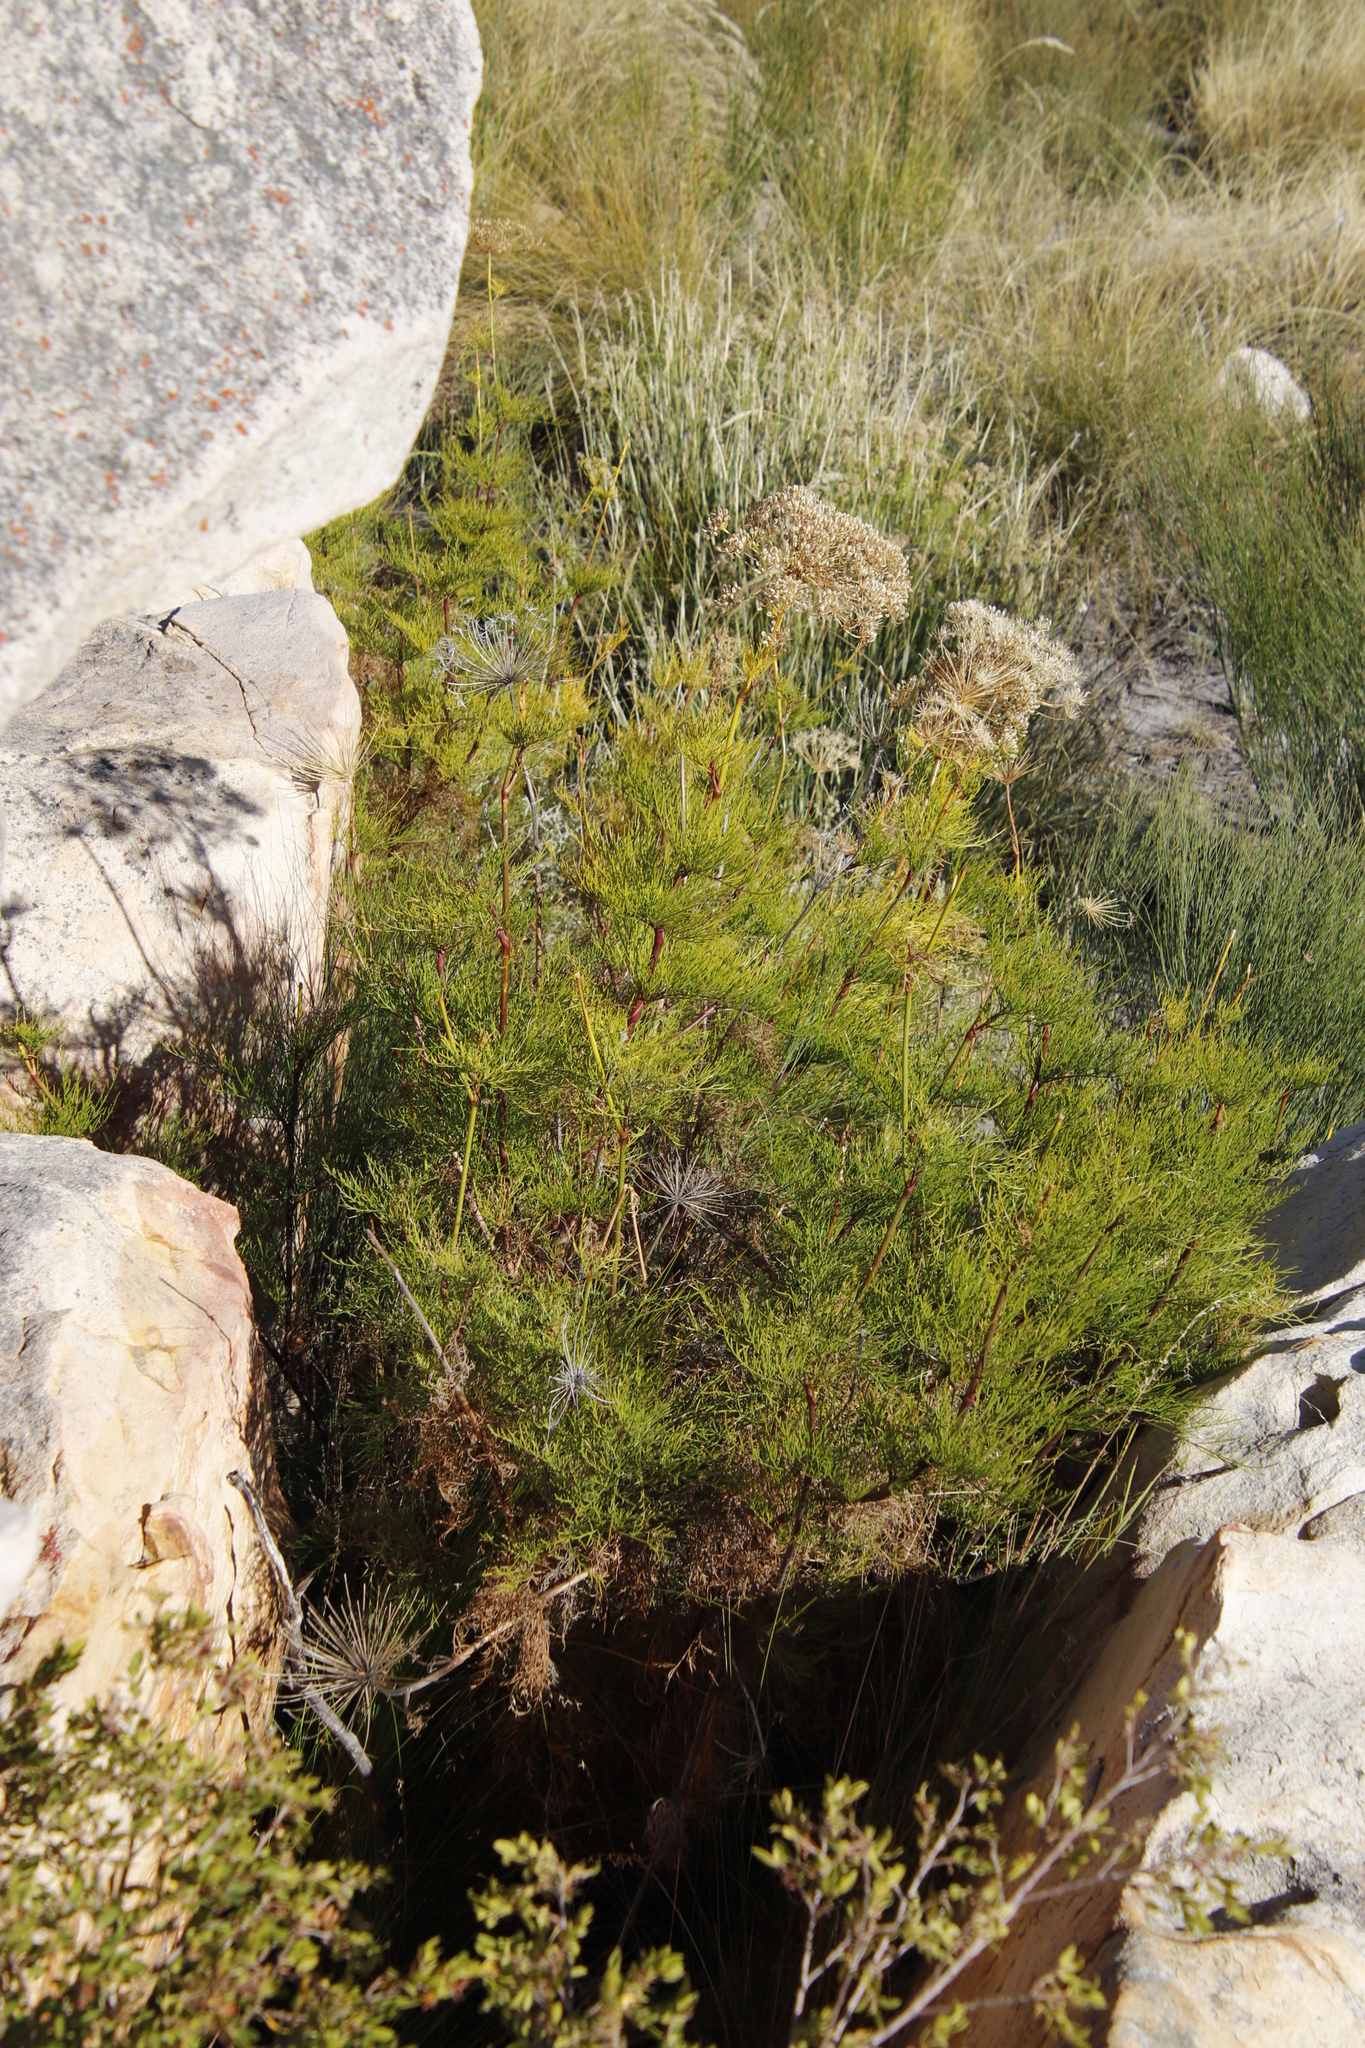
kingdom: Plantae
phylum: Tracheophyta
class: Magnoliopsida
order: Apiales
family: Apiaceae
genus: Notobubon
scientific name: Notobubon tenuifolium
